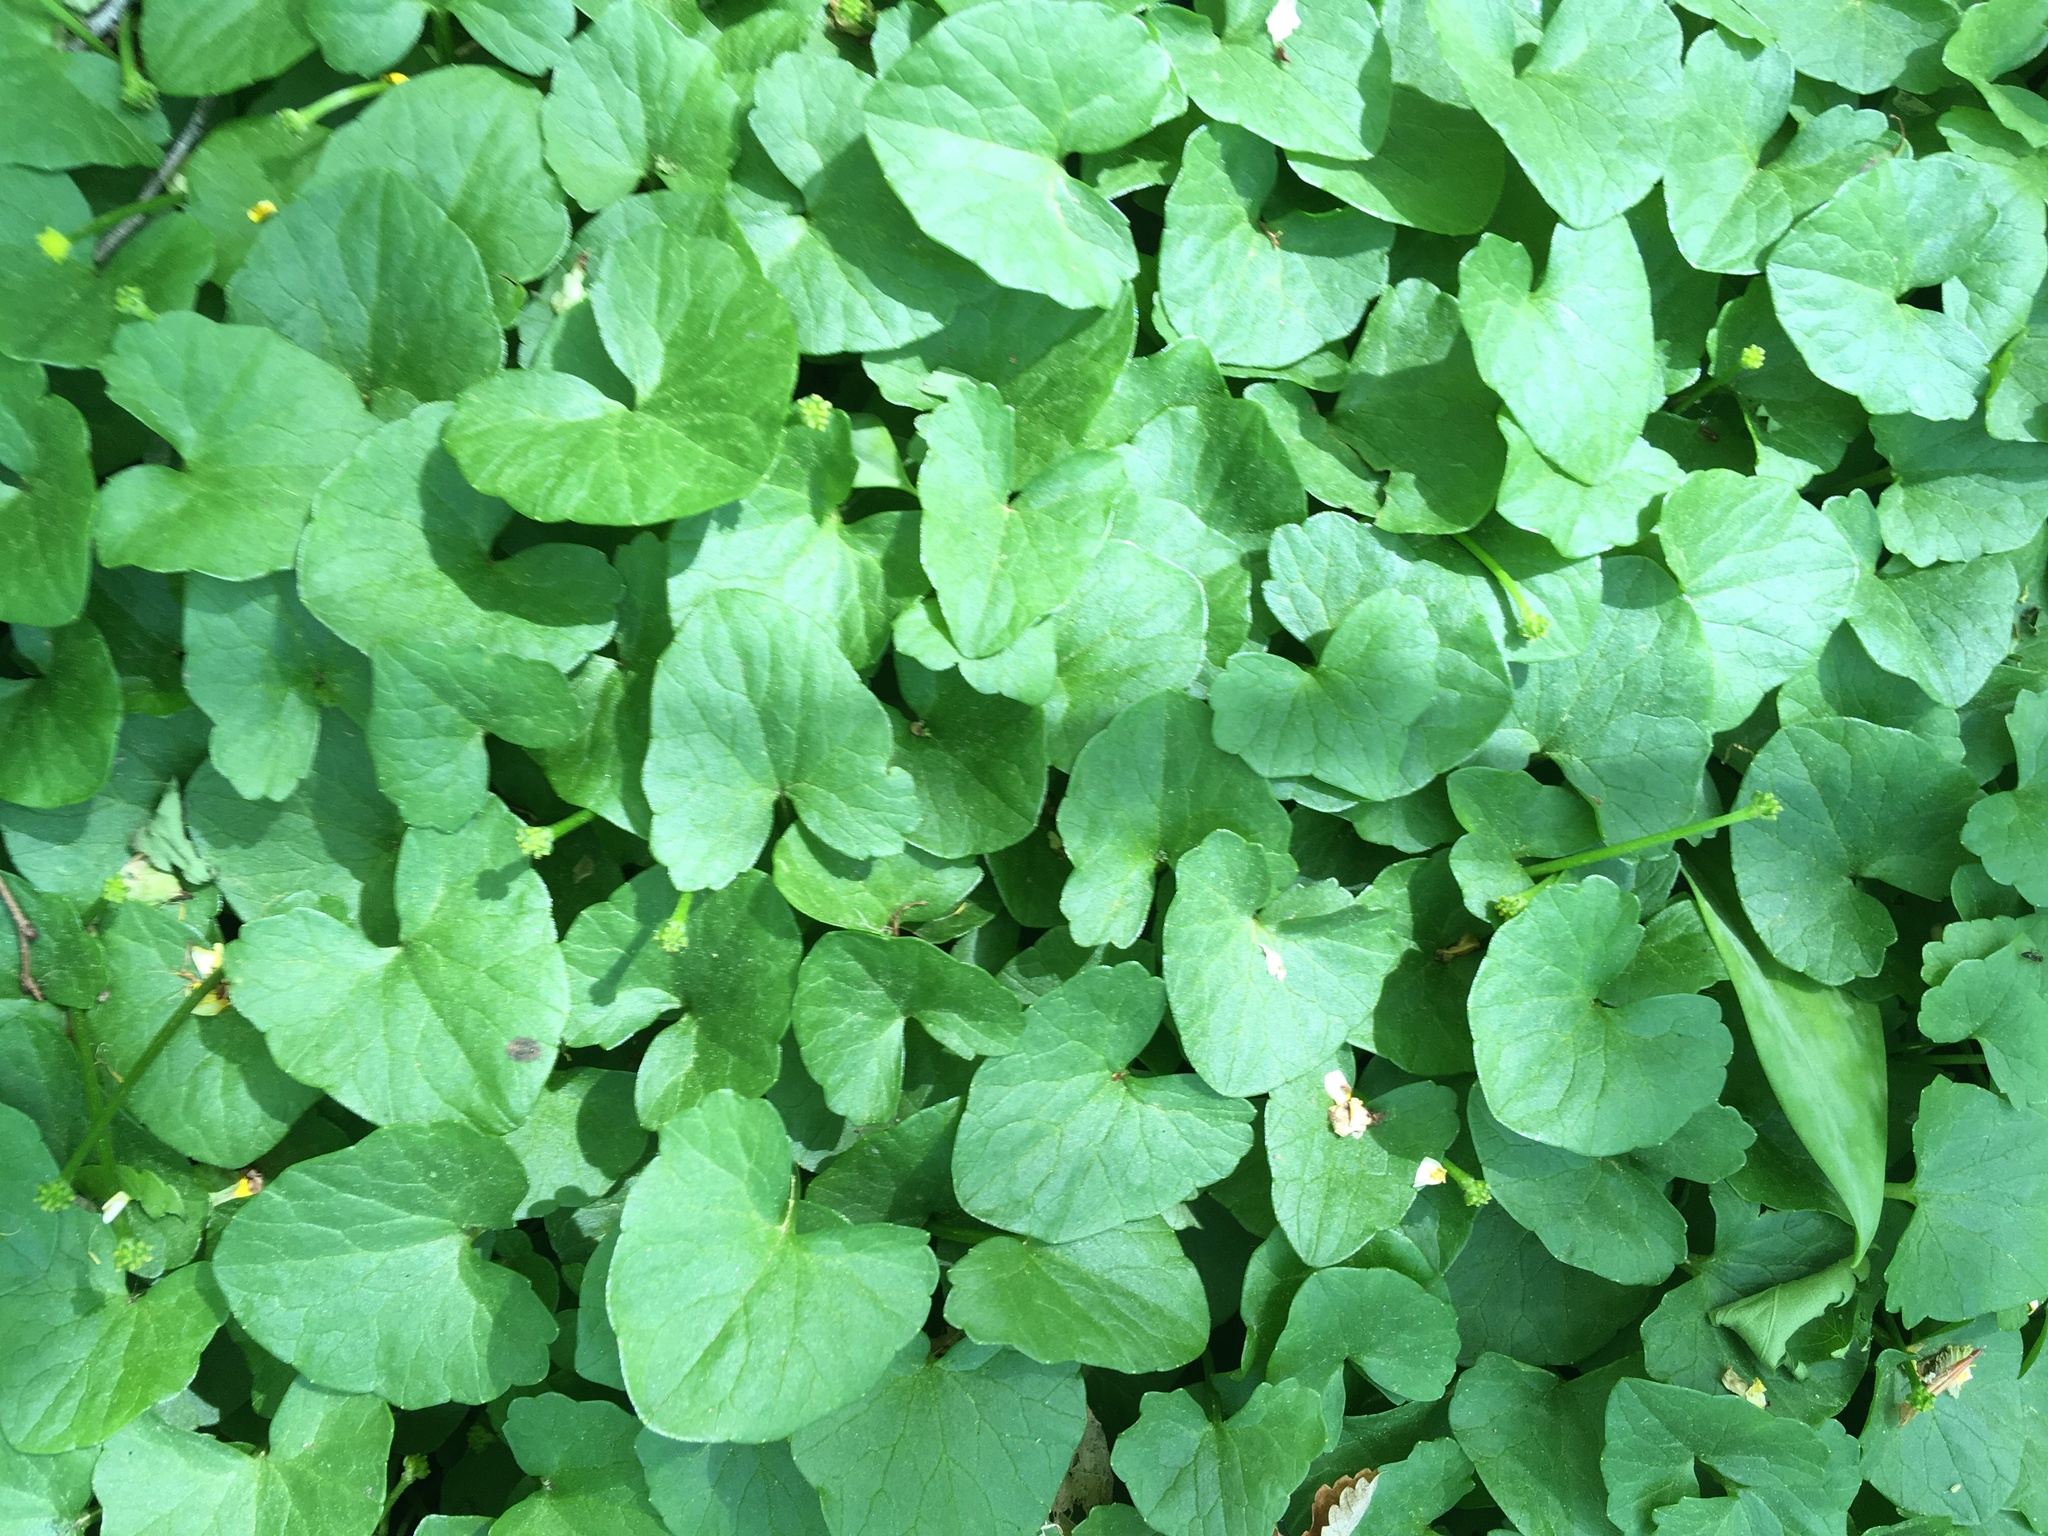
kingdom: Plantae
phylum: Tracheophyta
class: Magnoliopsida
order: Ranunculales
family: Ranunculaceae
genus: Ficaria
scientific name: Ficaria verna
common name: Lesser celandine
